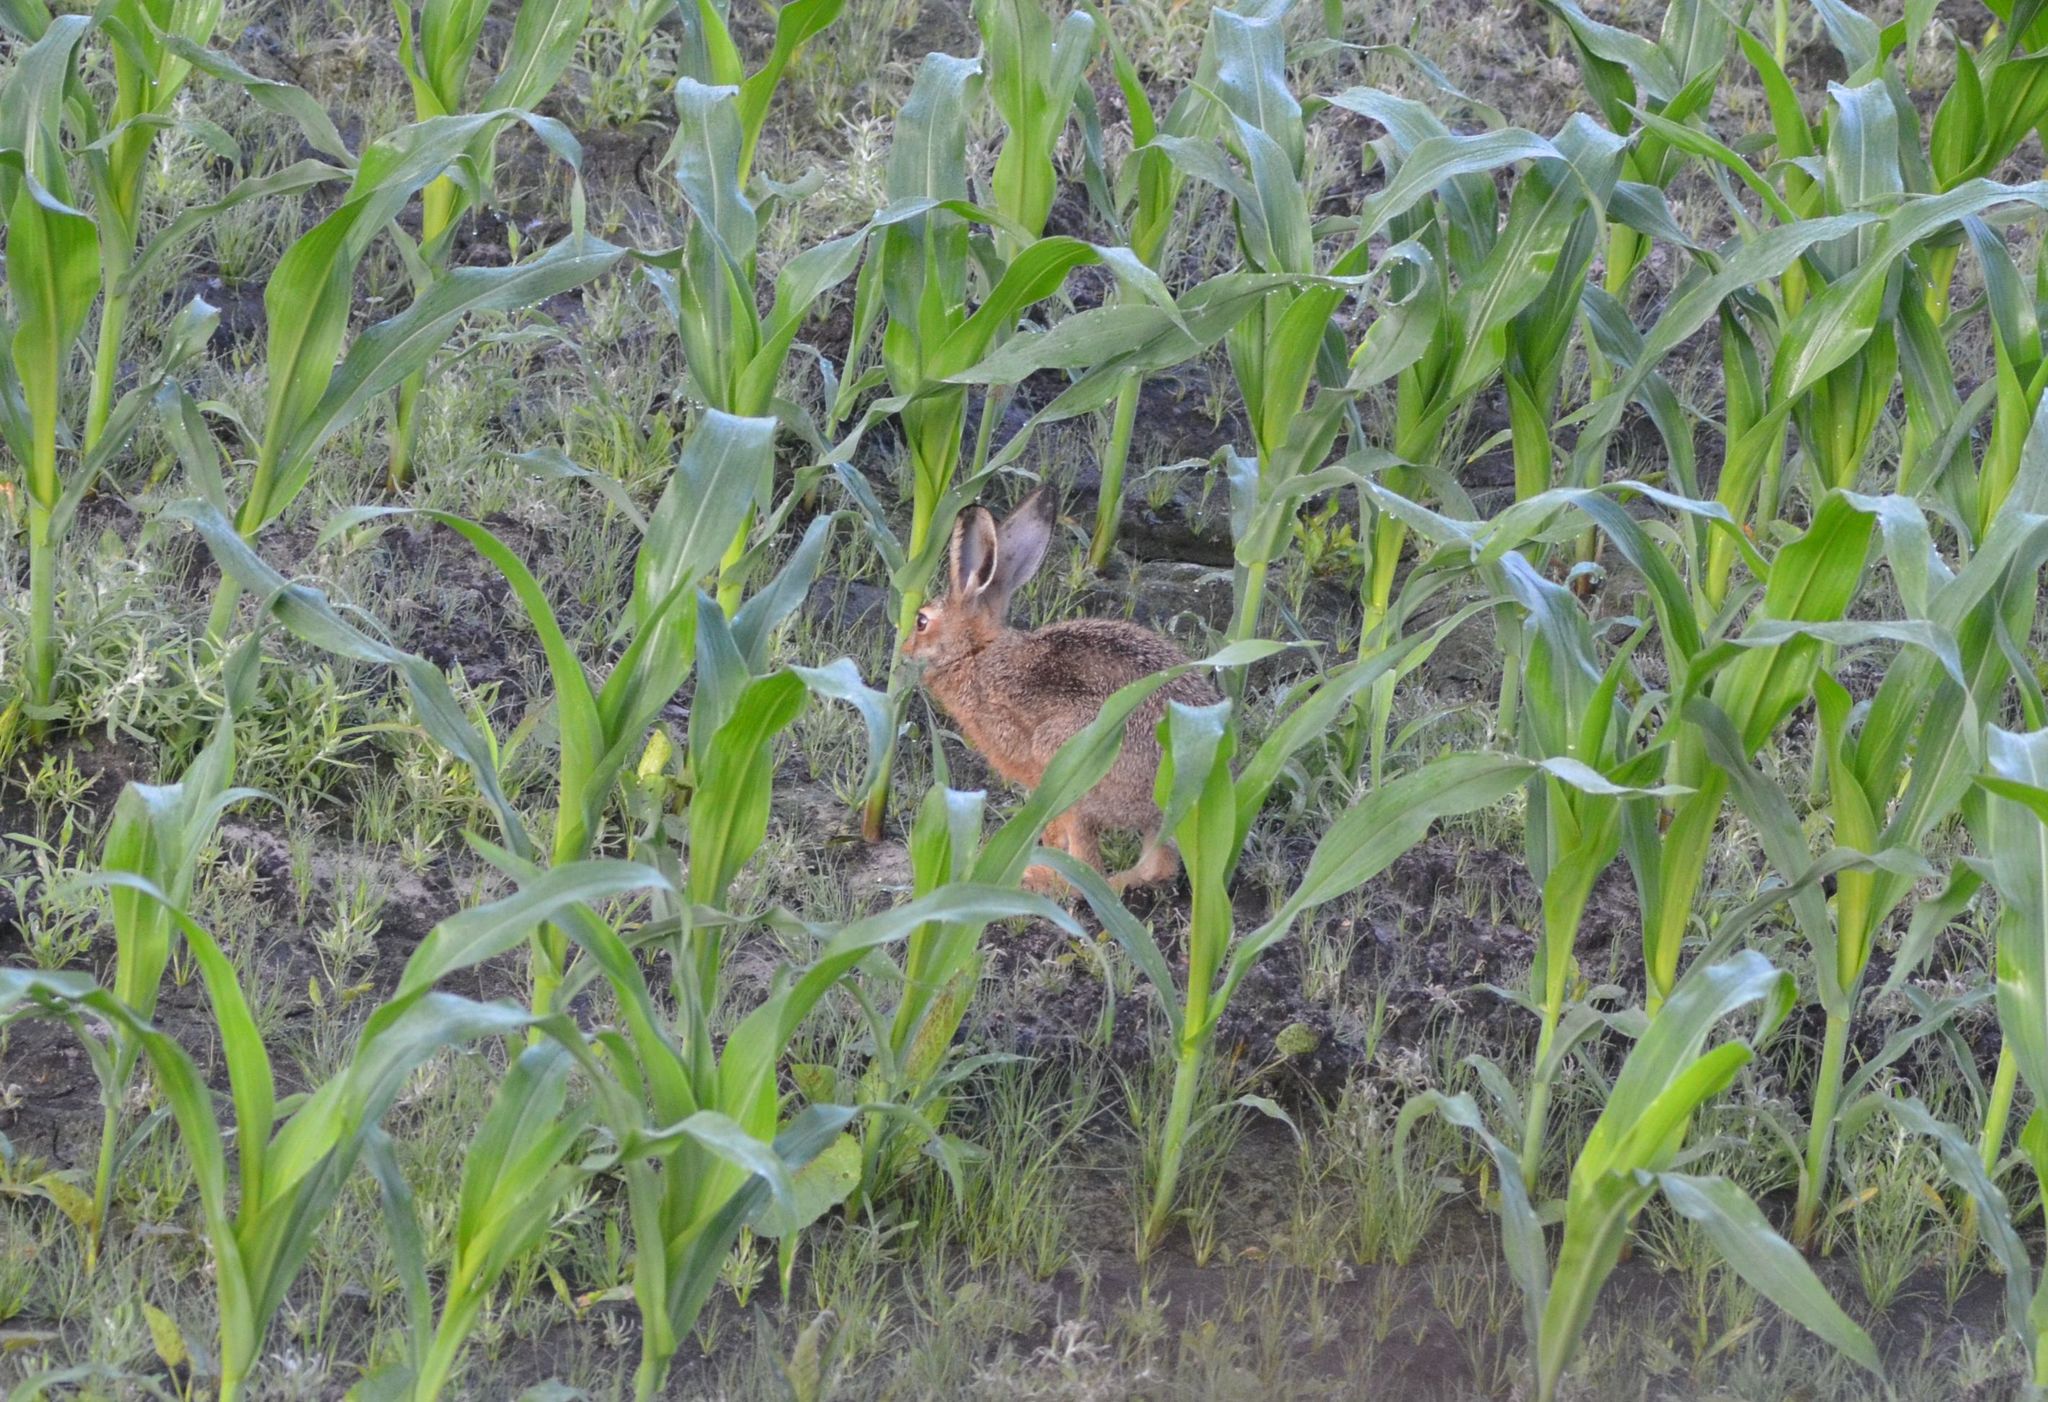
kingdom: Animalia
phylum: Chordata
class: Mammalia
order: Lagomorpha
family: Leporidae
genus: Lepus
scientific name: Lepus europaeus
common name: European hare
